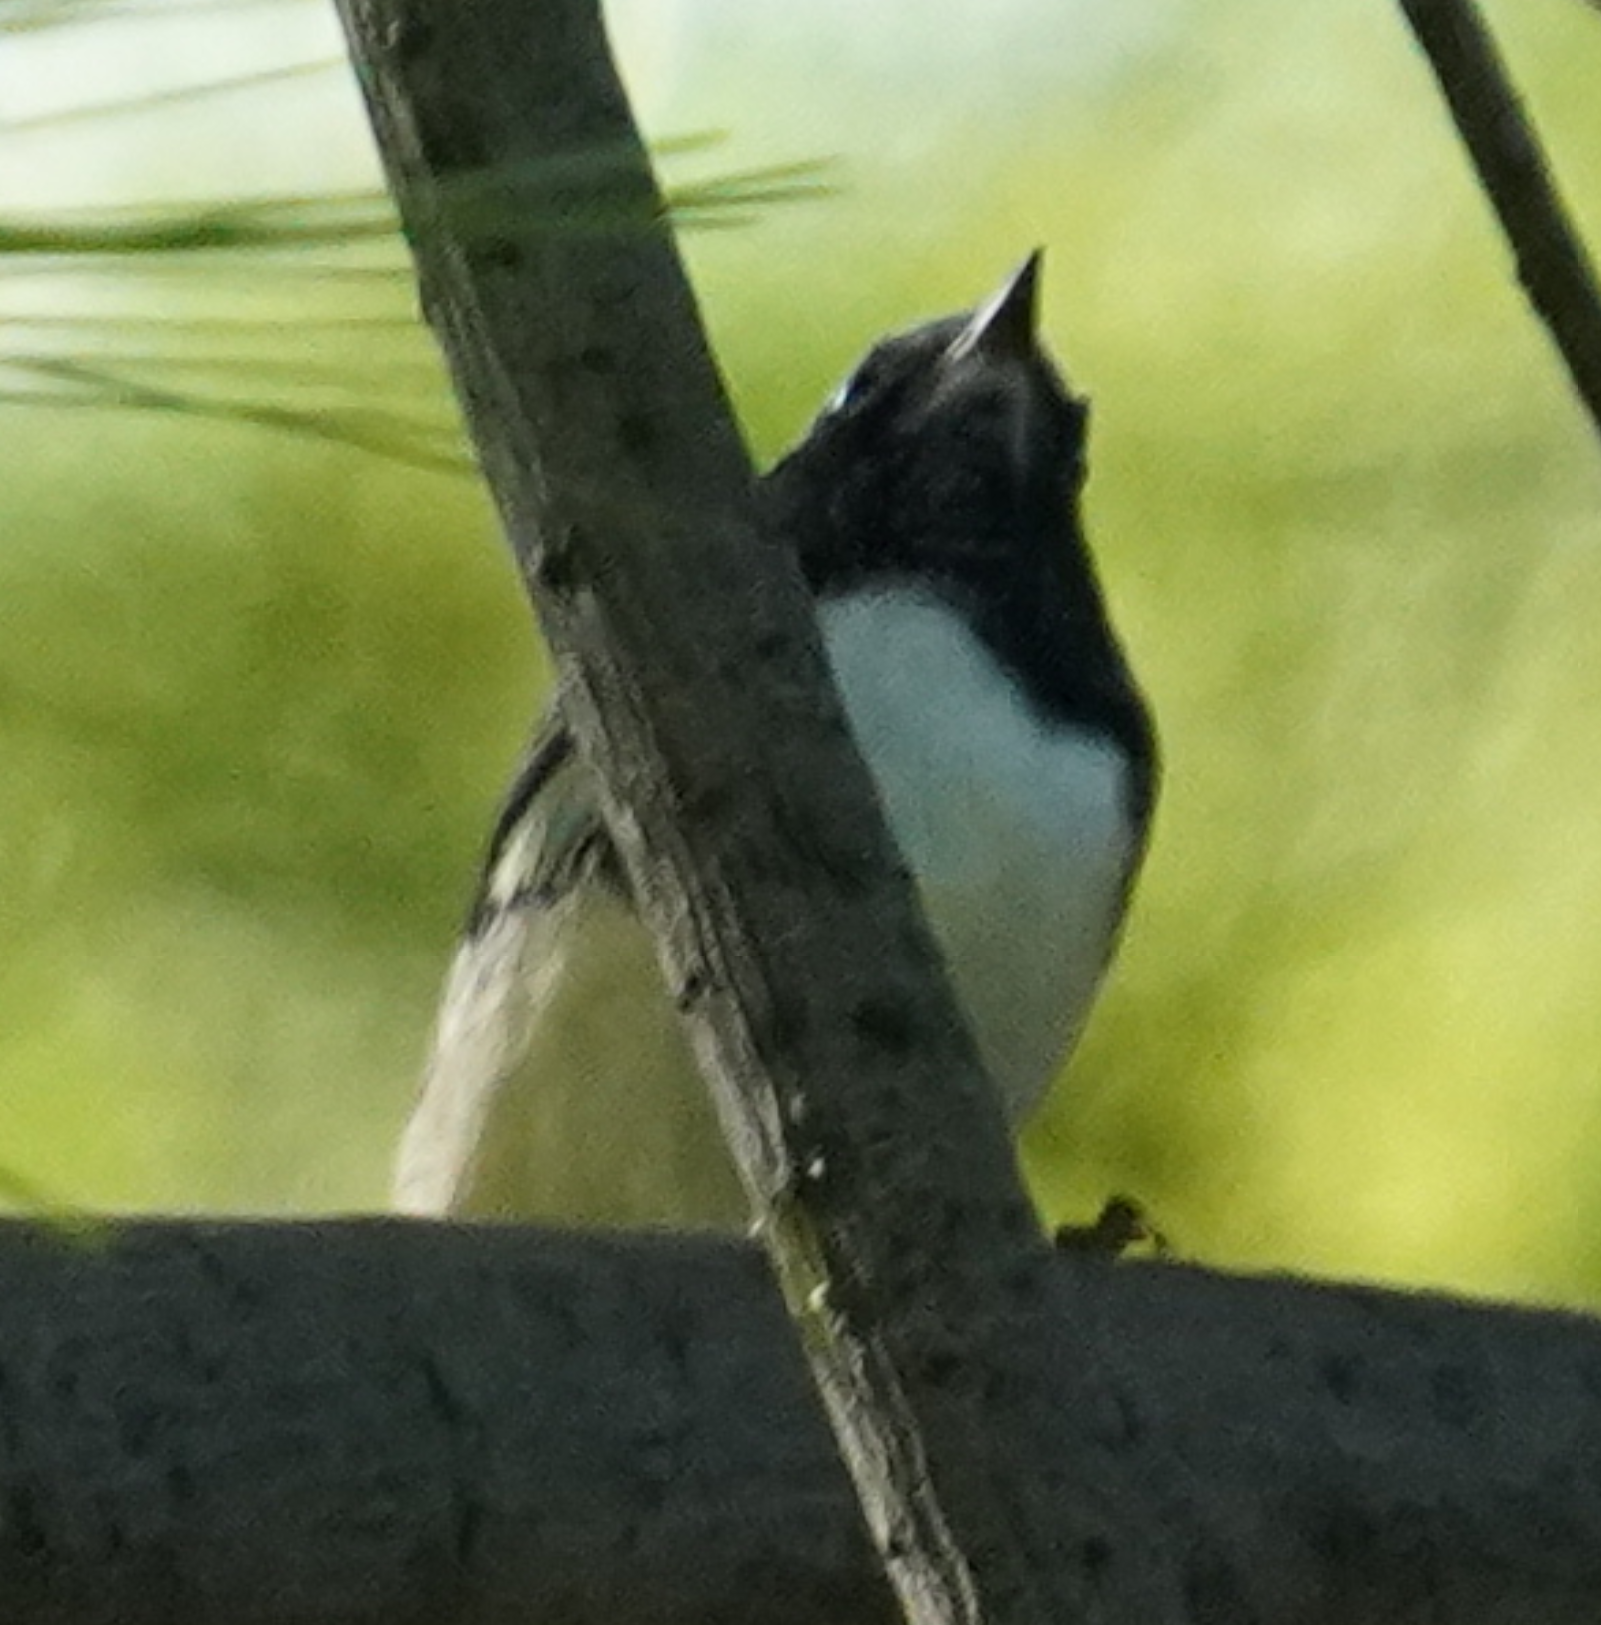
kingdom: Animalia
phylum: Chordata
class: Aves
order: Passeriformes
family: Parulidae
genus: Setophaga
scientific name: Setophaga caerulescens
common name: Black-throated blue warbler
